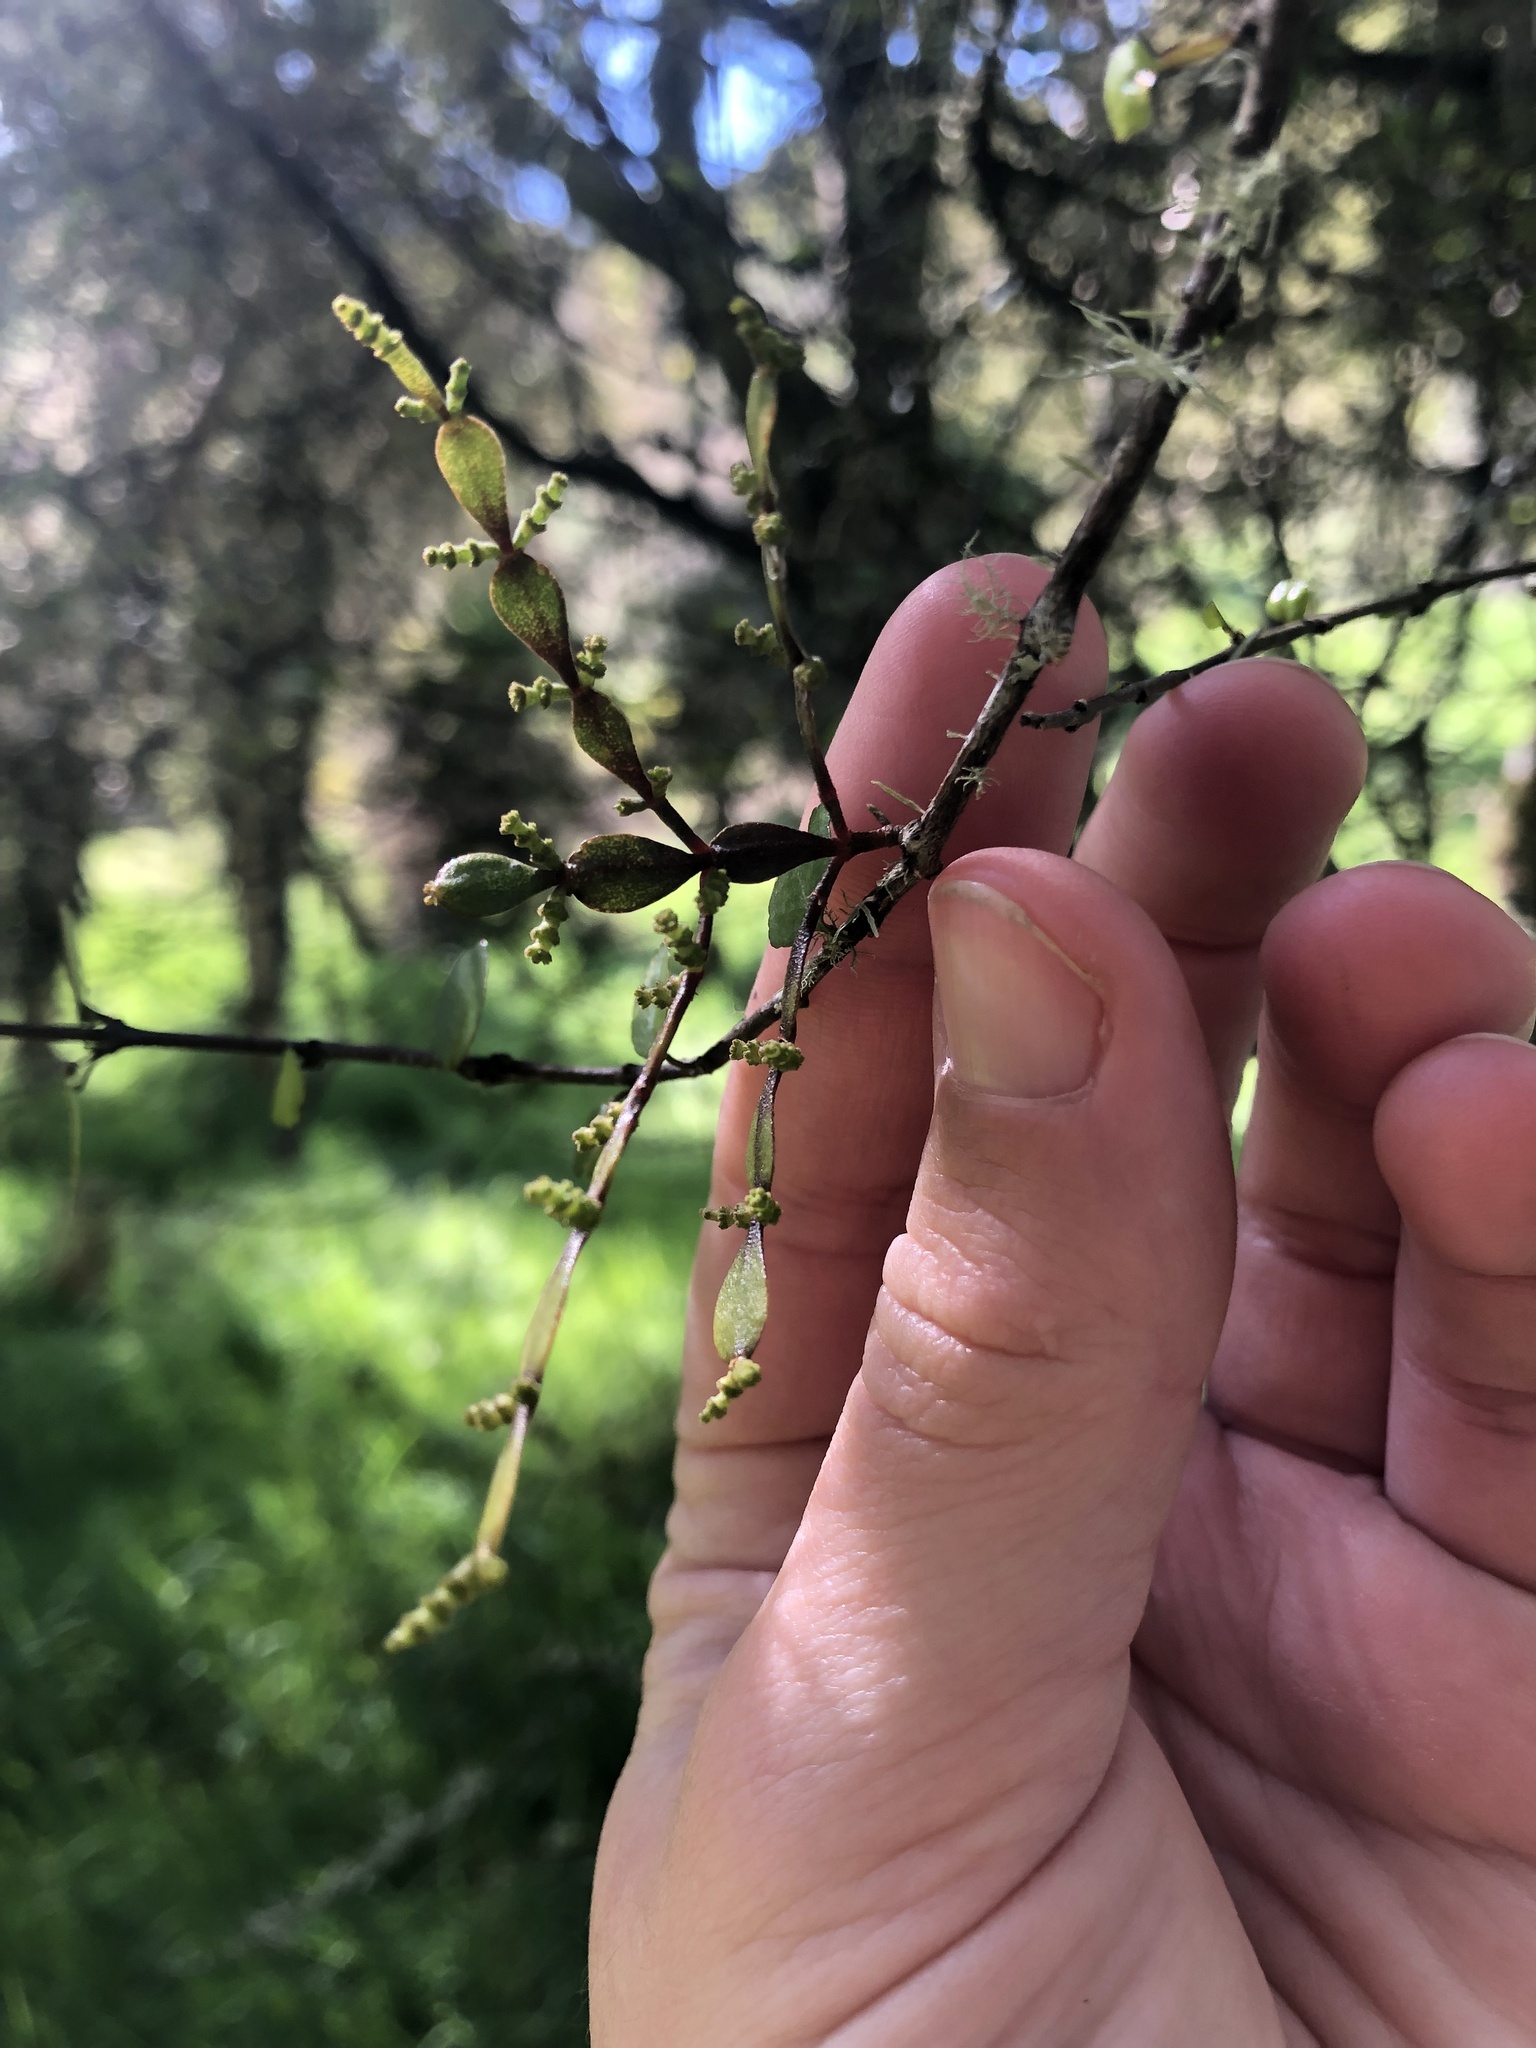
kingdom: Plantae
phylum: Tracheophyta
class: Magnoliopsida
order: Santalales
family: Viscaceae
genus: Korthalsella
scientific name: Korthalsella lindsayi
